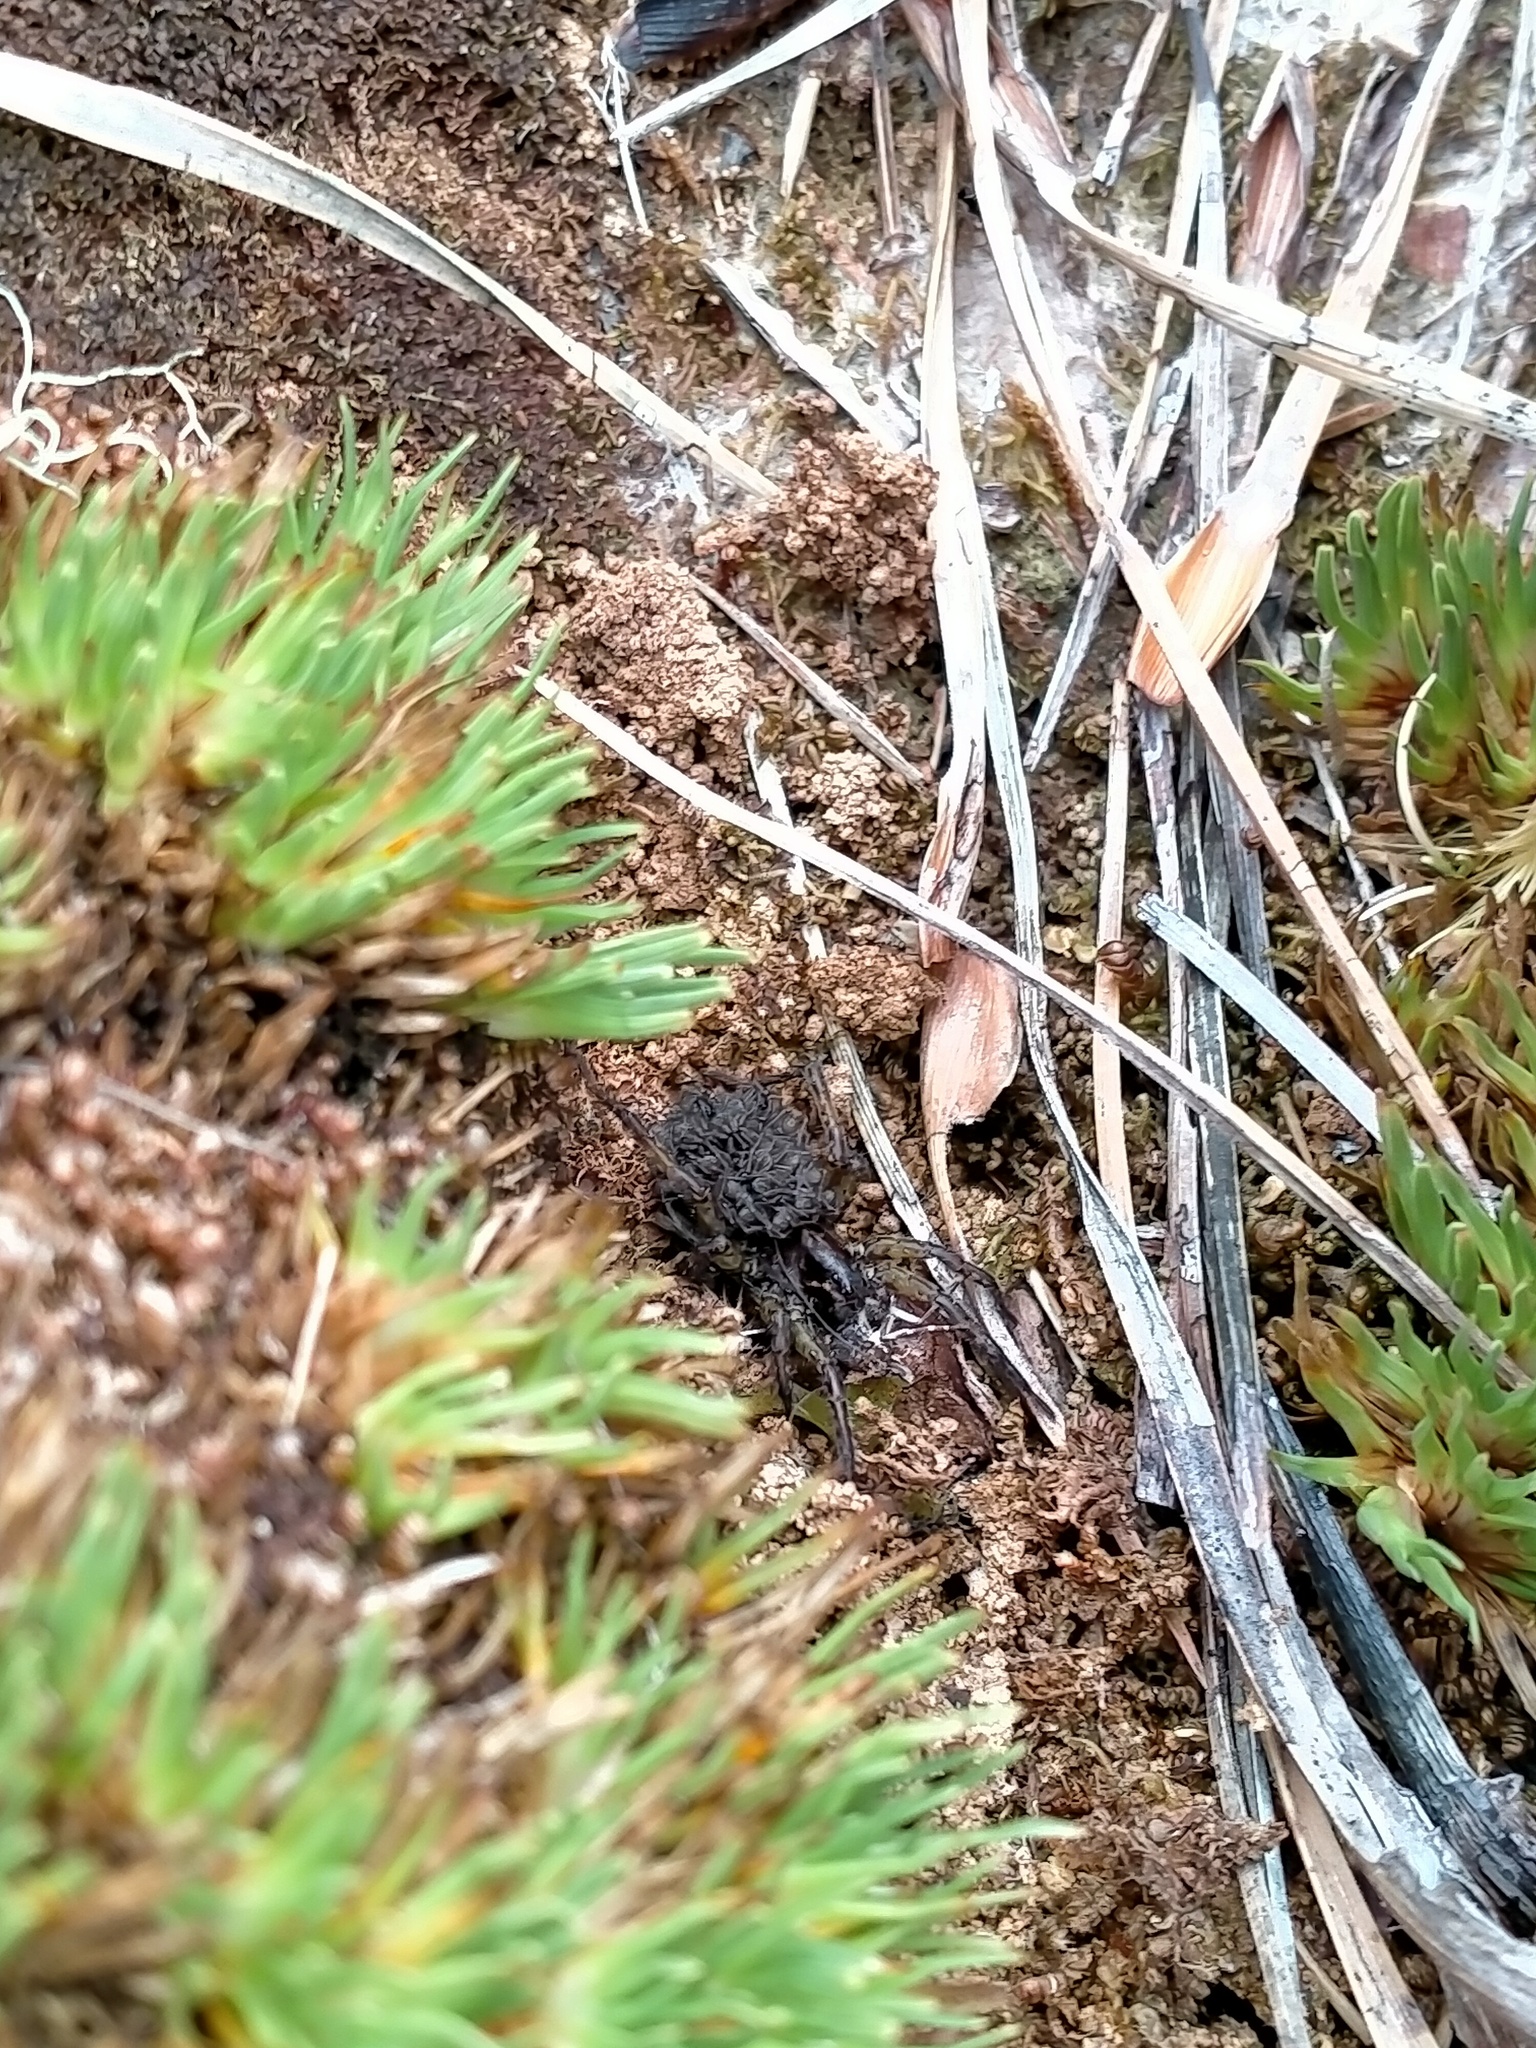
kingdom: Animalia
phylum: Arthropoda
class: Arachnida
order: Araneae
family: Lycosidae
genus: Anoteropsis
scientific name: Anoteropsis hilaris
